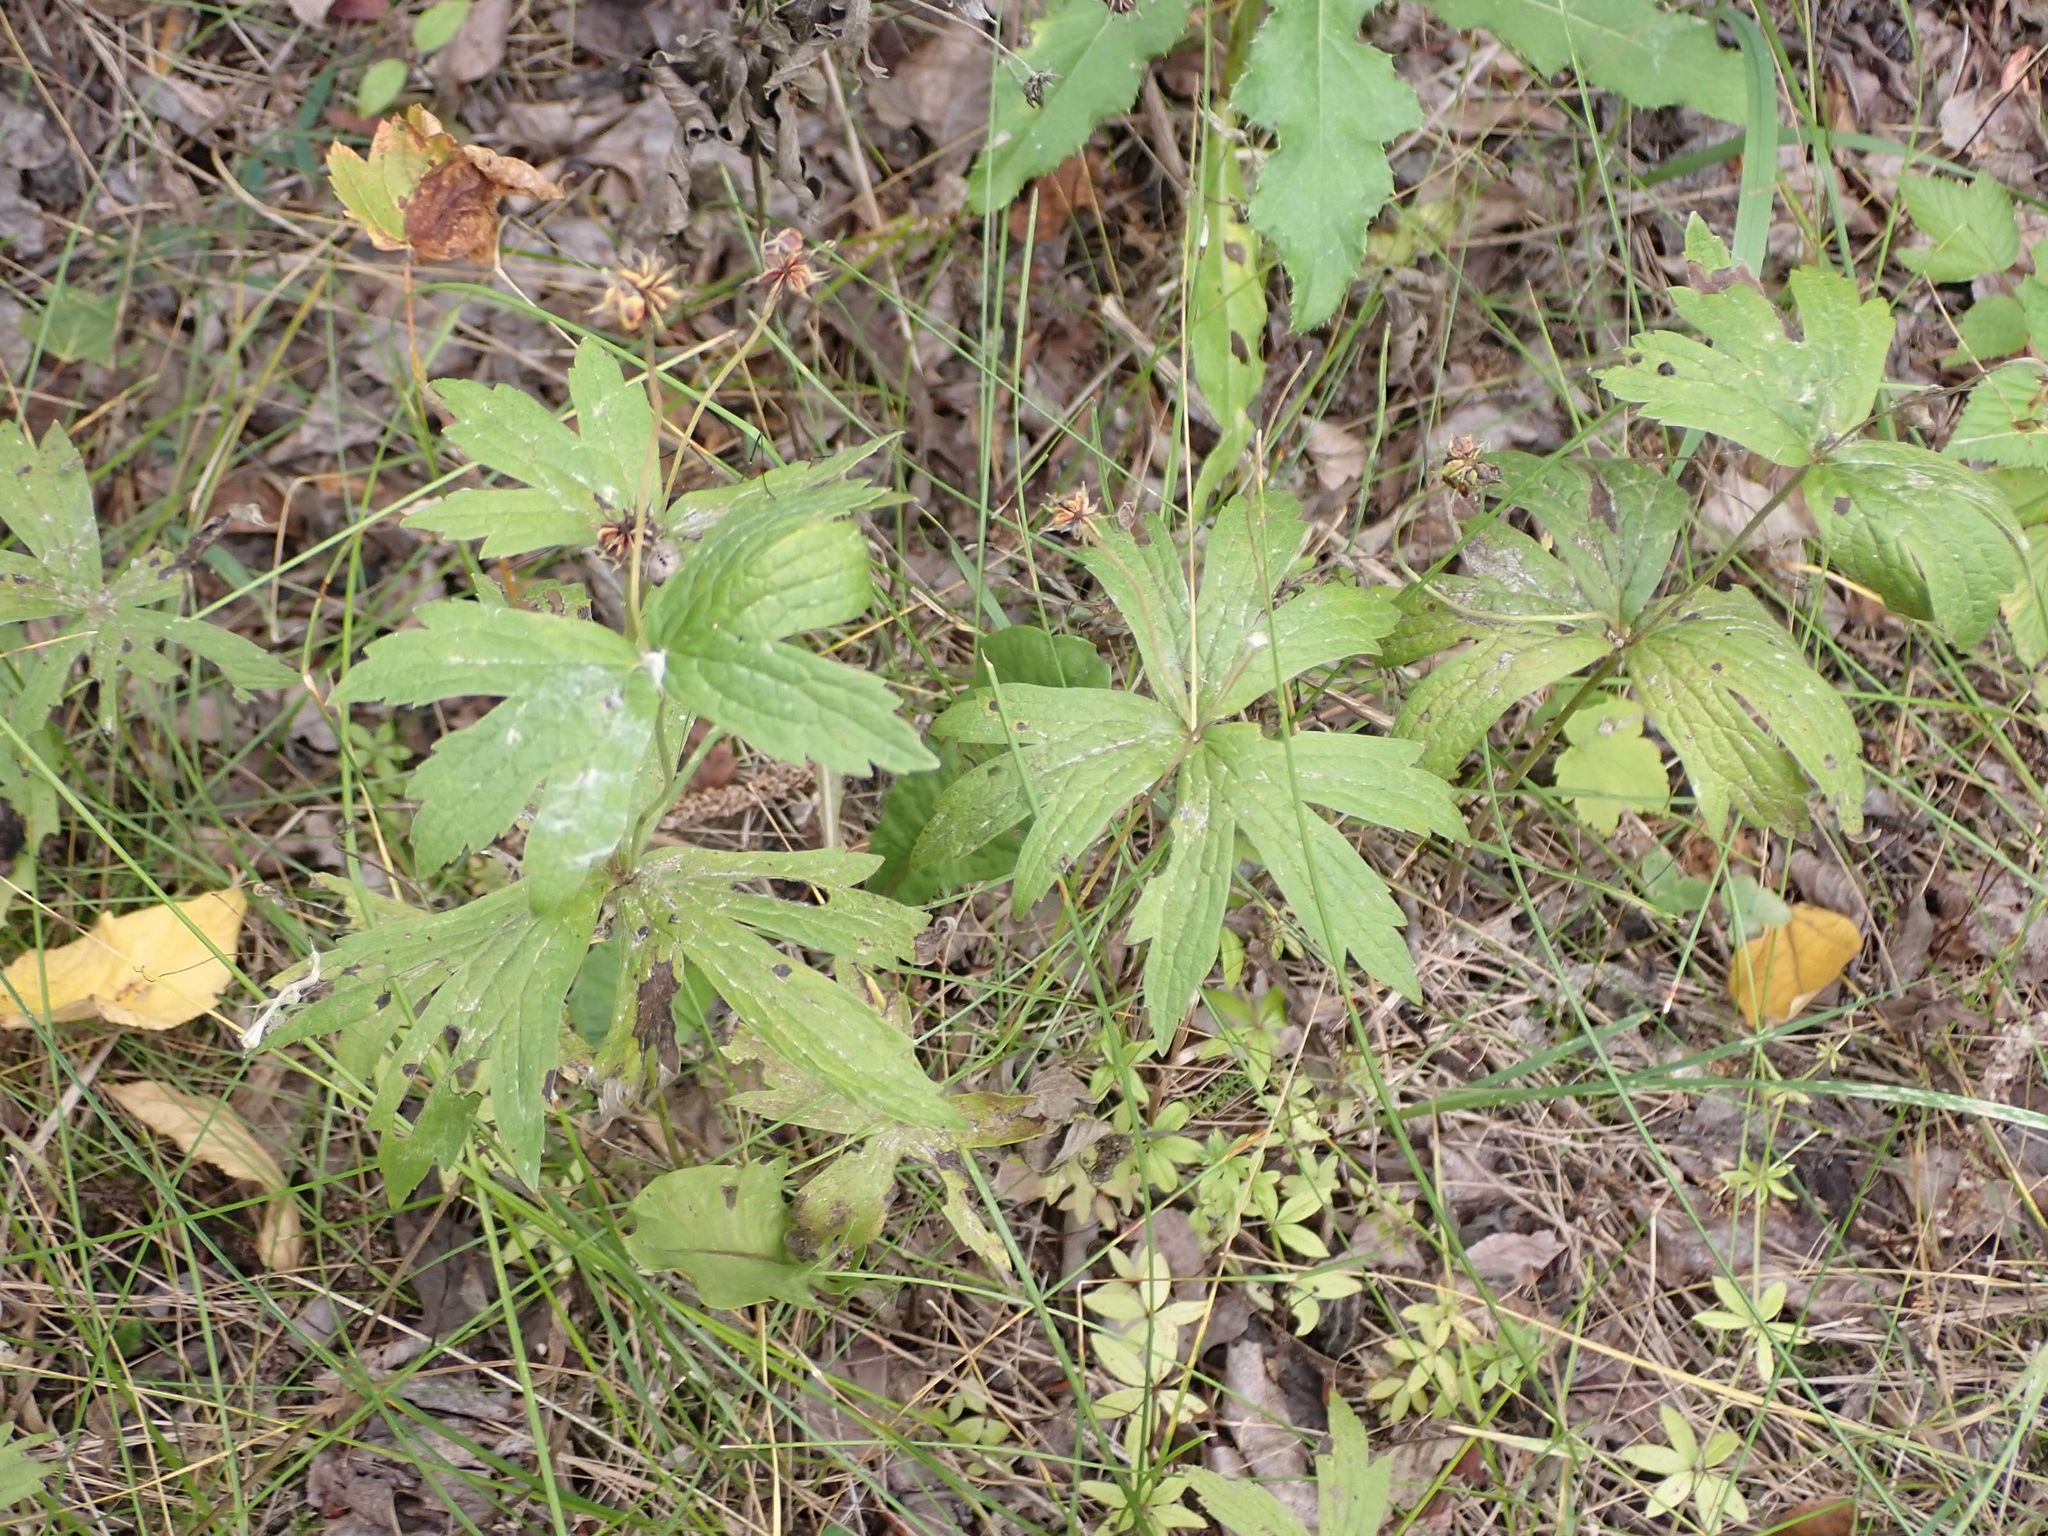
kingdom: Plantae
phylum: Tracheophyta
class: Magnoliopsida
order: Ranunculales
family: Ranunculaceae
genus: Anemonastrum
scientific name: Anemonastrum canadense
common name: Canada anemone
